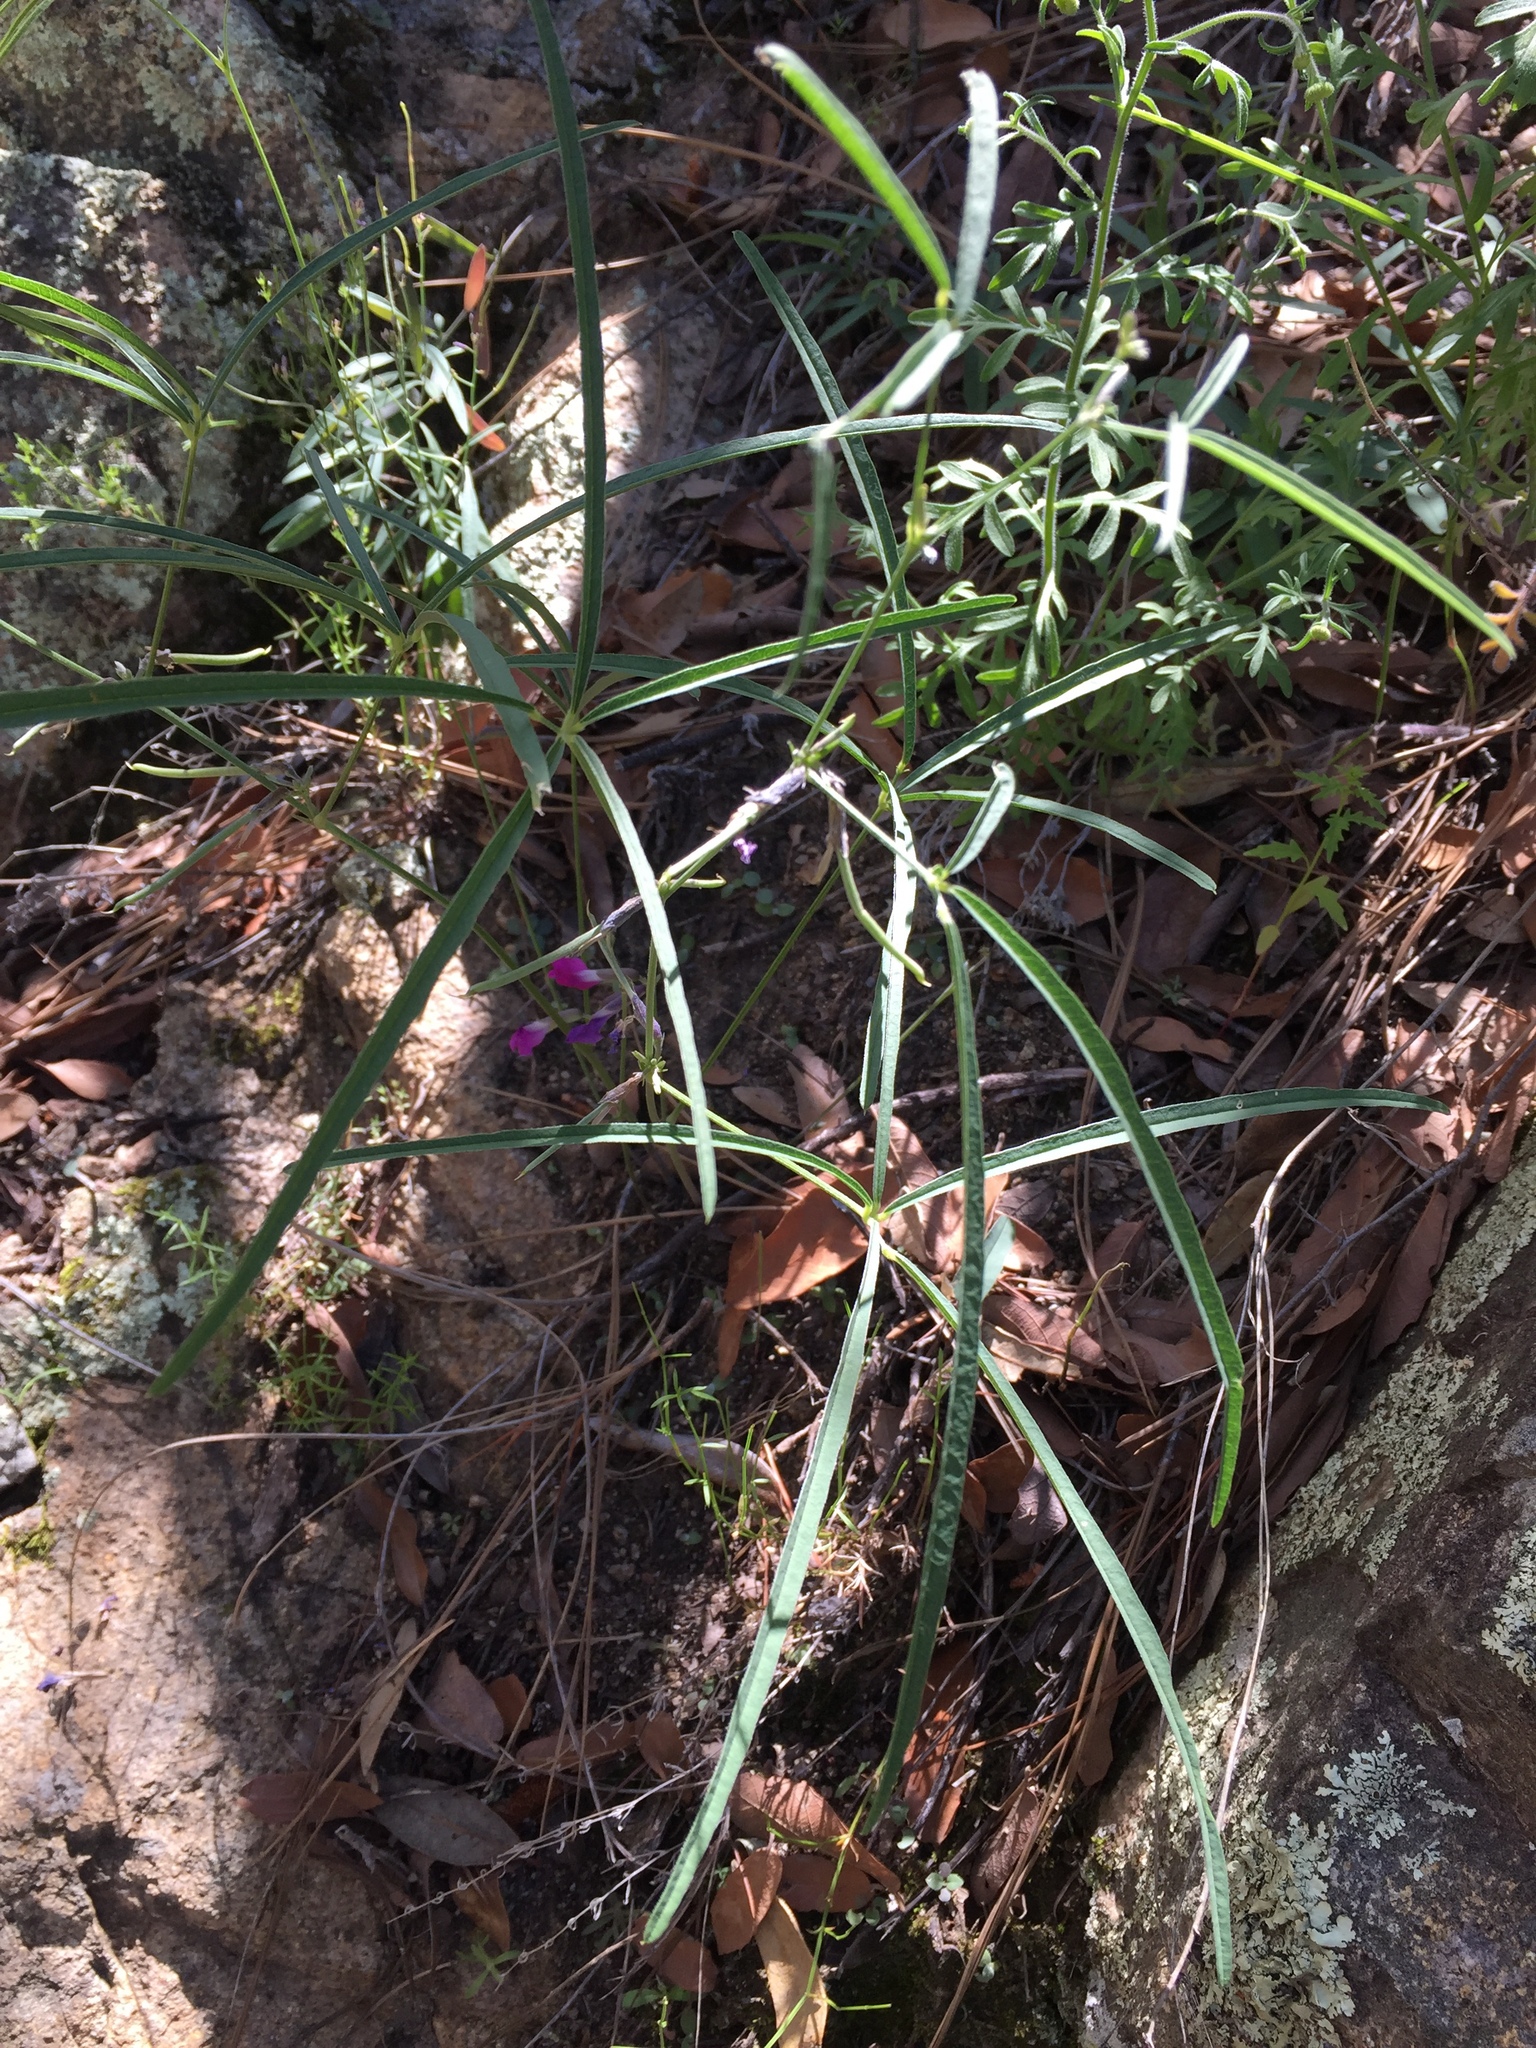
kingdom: Plantae
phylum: Tracheophyta
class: Magnoliopsida
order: Fabales
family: Fabaceae
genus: Cologania
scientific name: Cologania angustifolia
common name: Longleaf cologania
